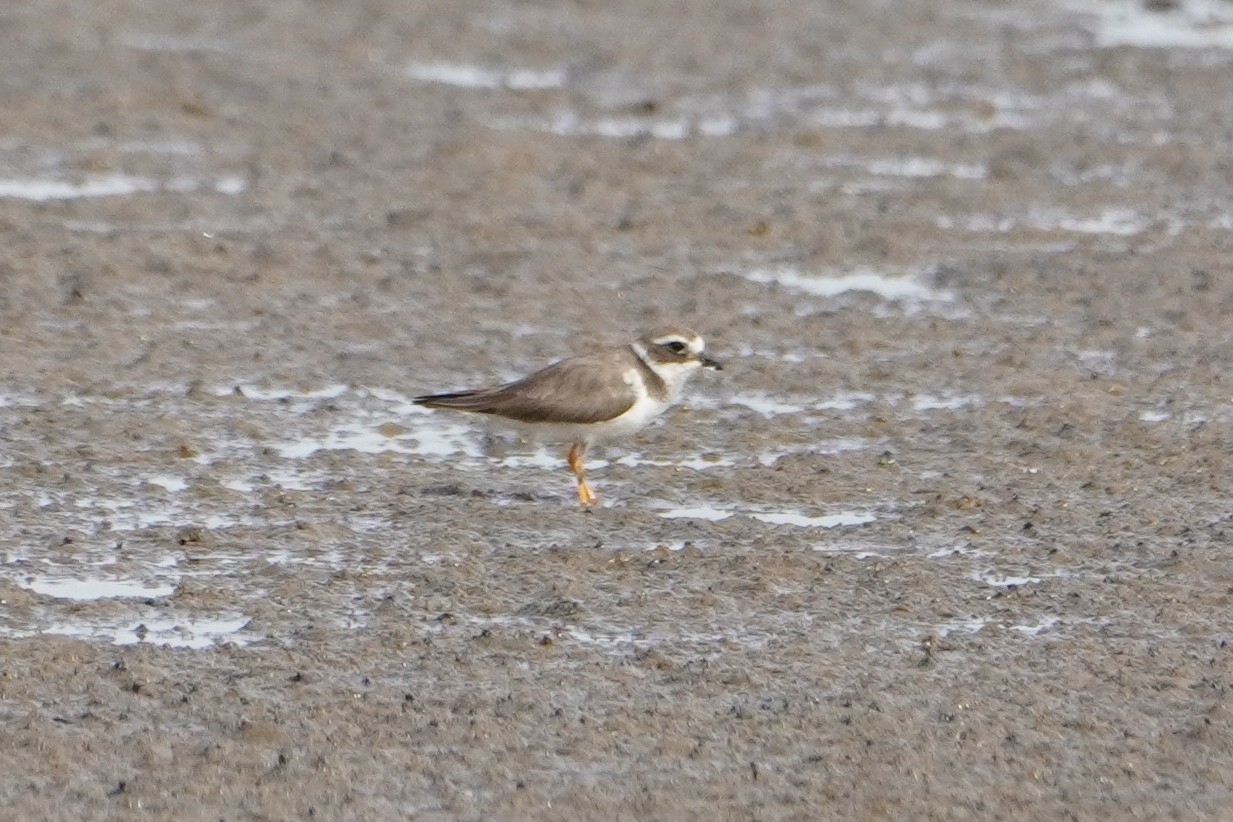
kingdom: Animalia
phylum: Chordata
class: Aves
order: Charadriiformes
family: Charadriidae
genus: Charadrius
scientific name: Charadrius hiaticula
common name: Common ringed plover
